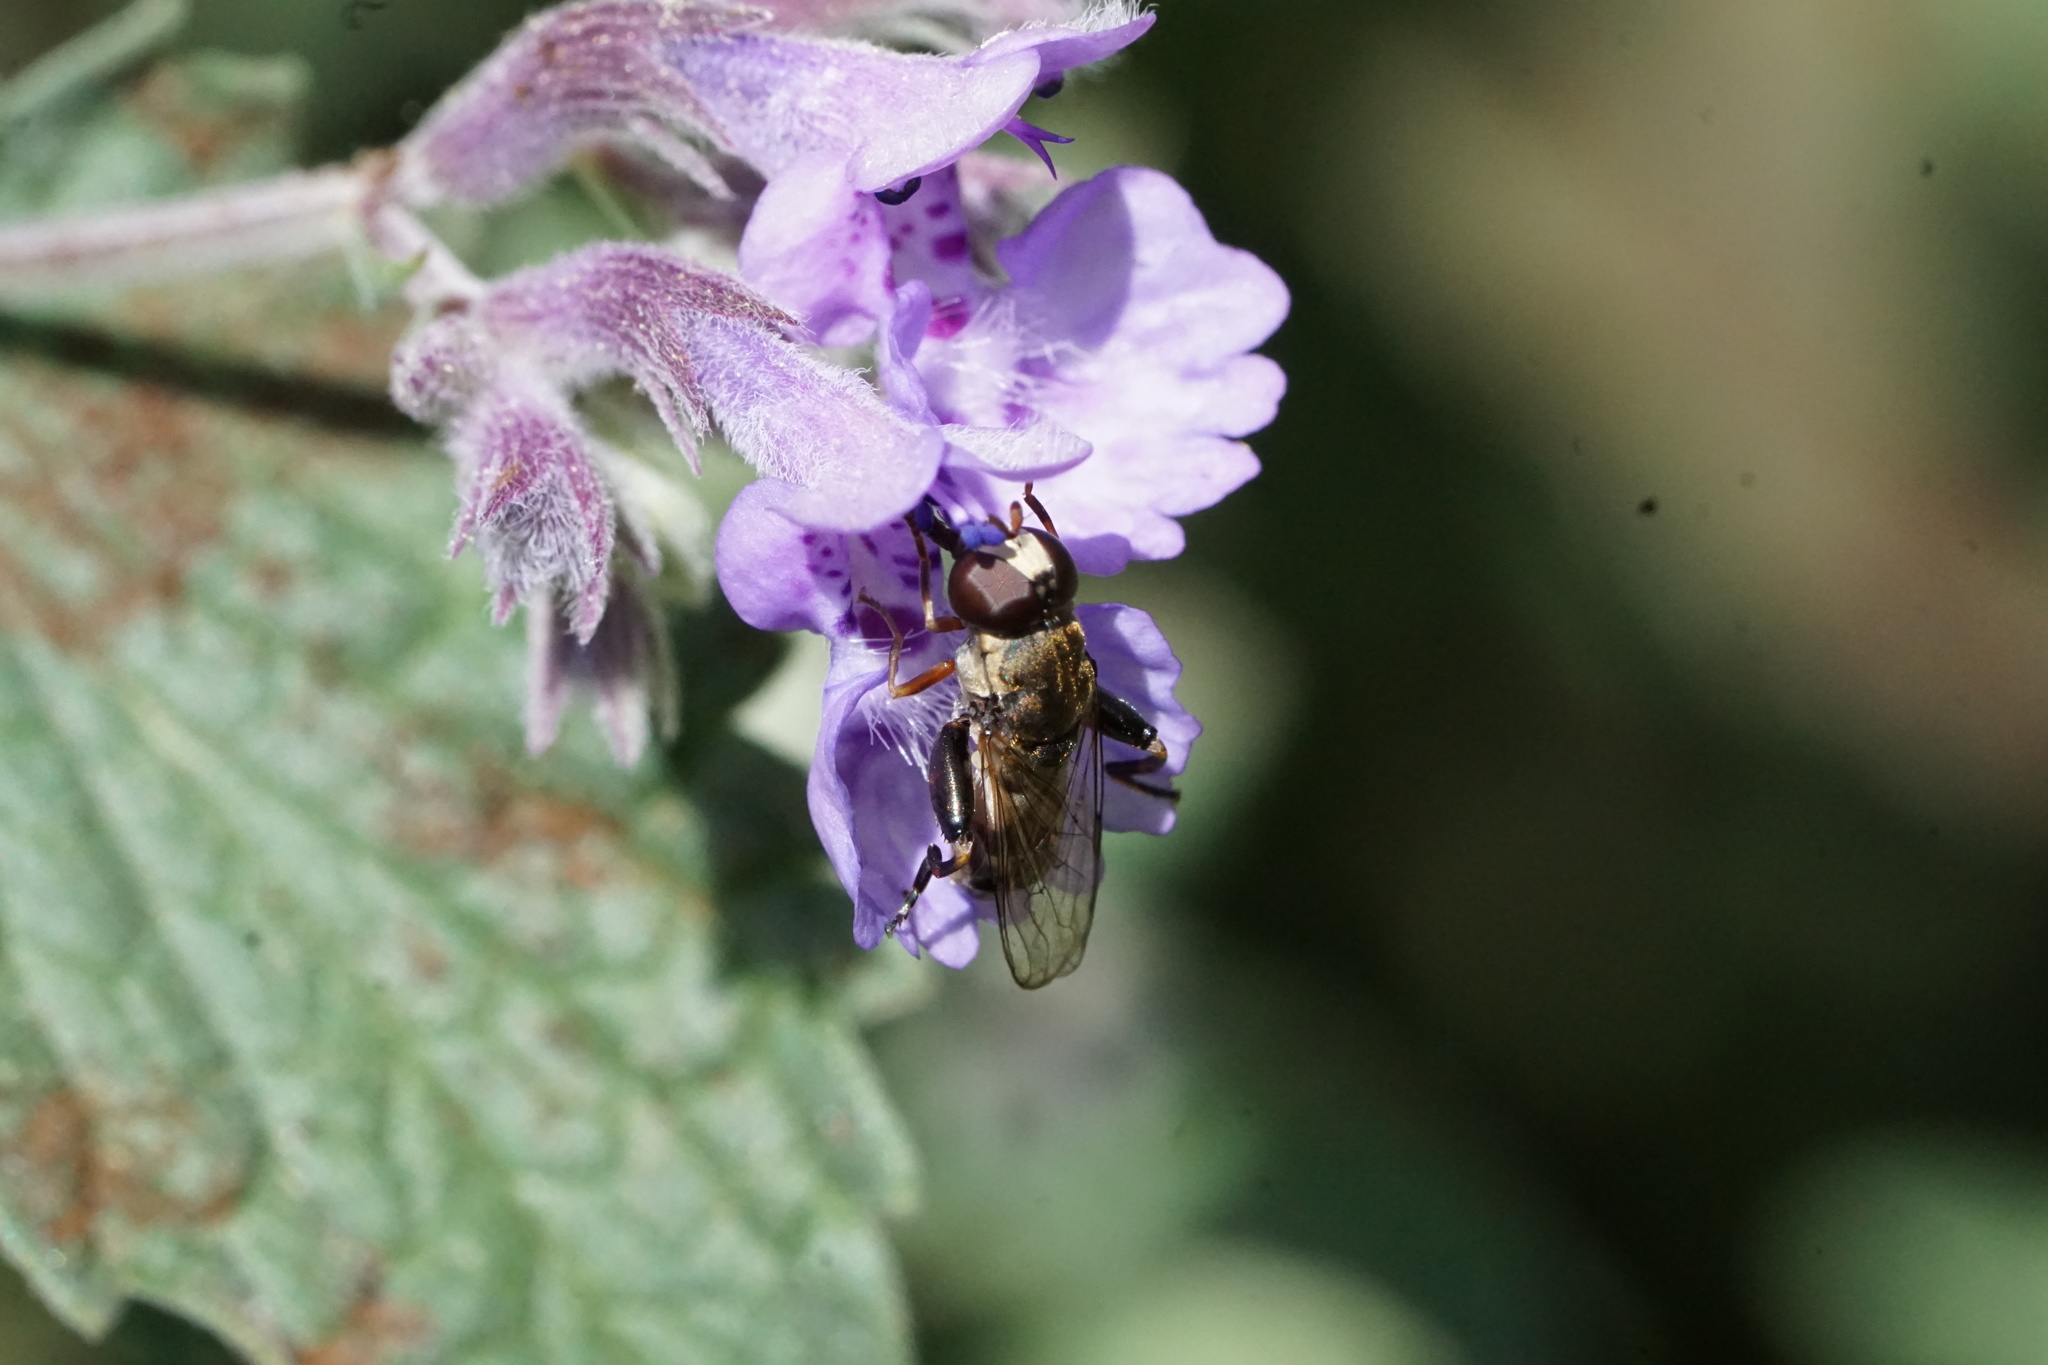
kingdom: Animalia
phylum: Arthropoda
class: Insecta
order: Diptera
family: Syrphidae
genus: Syritta
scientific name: Syritta pipiens
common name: Hover fly
